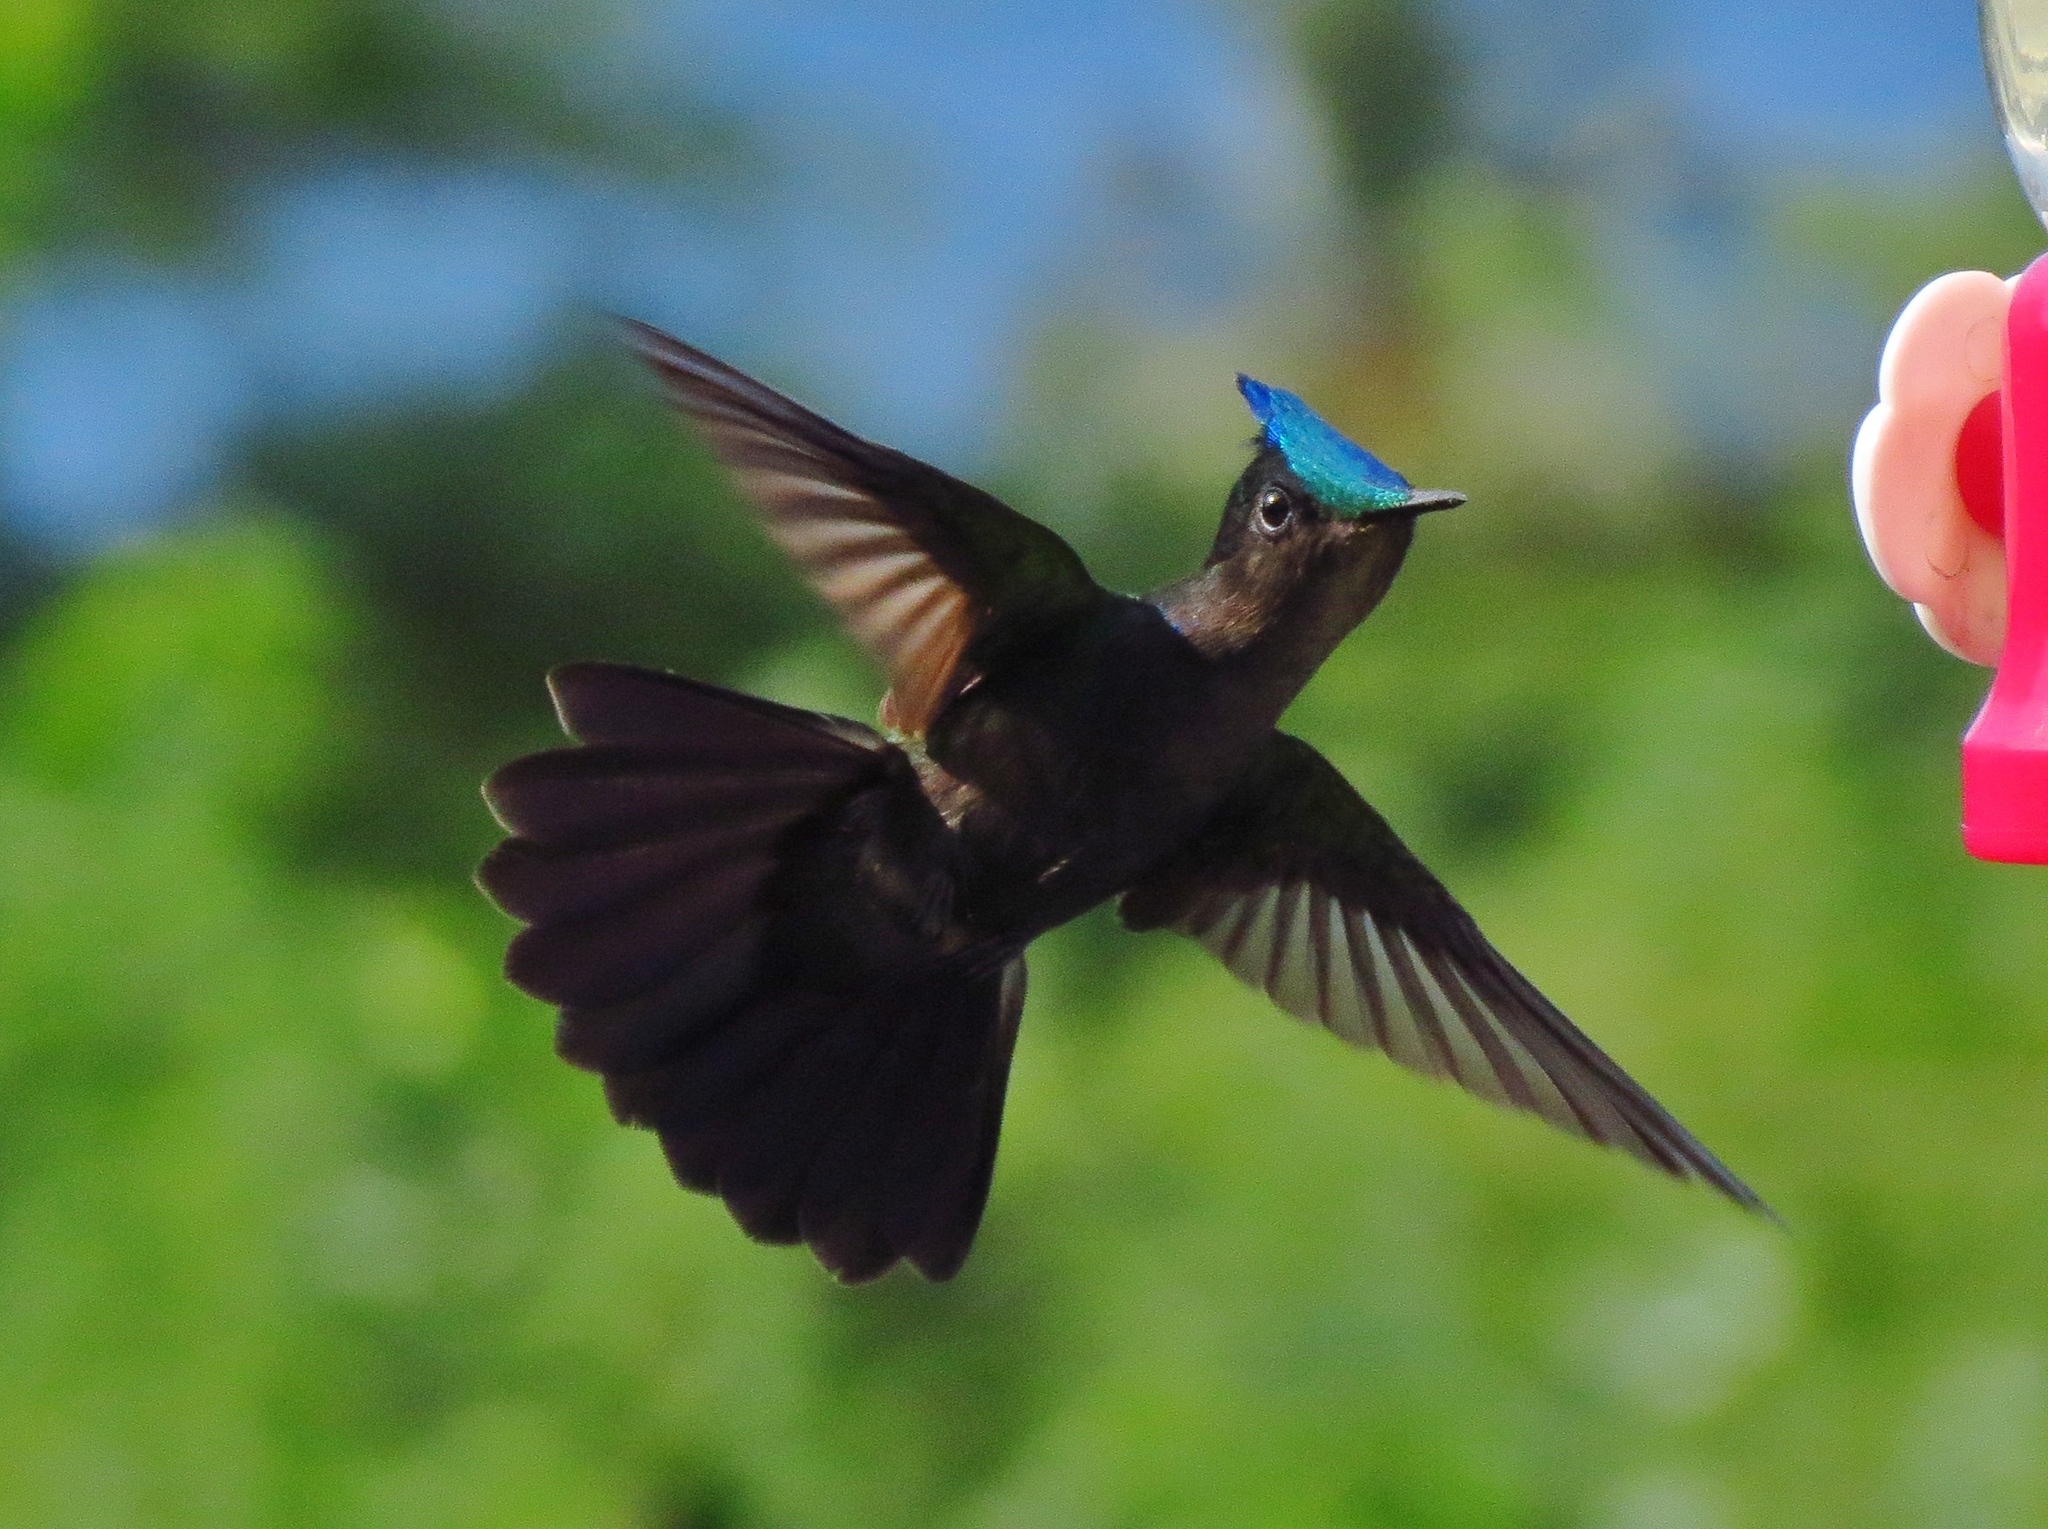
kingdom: Animalia
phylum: Chordata
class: Aves
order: Apodiformes
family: Trochilidae
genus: Orthorhyncus
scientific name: Orthorhyncus cristatus
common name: Antillean crested hummingbird
